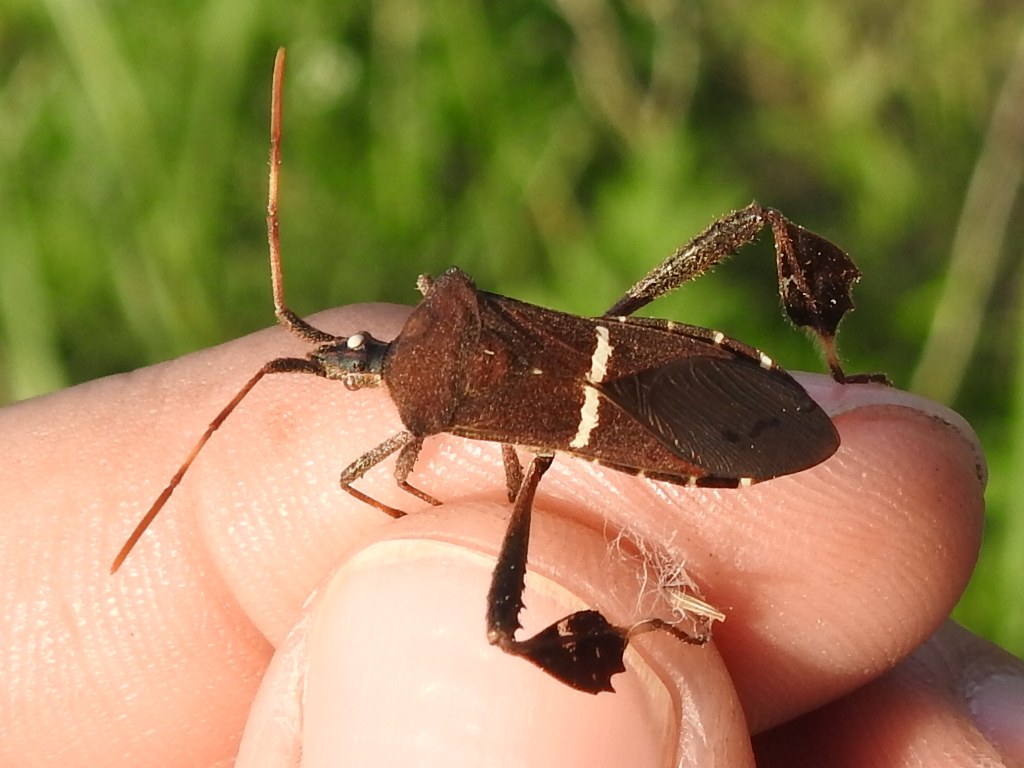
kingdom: Animalia
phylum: Arthropoda
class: Insecta
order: Hemiptera
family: Coreidae
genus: Leptoglossus
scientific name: Leptoglossus phyllopus
